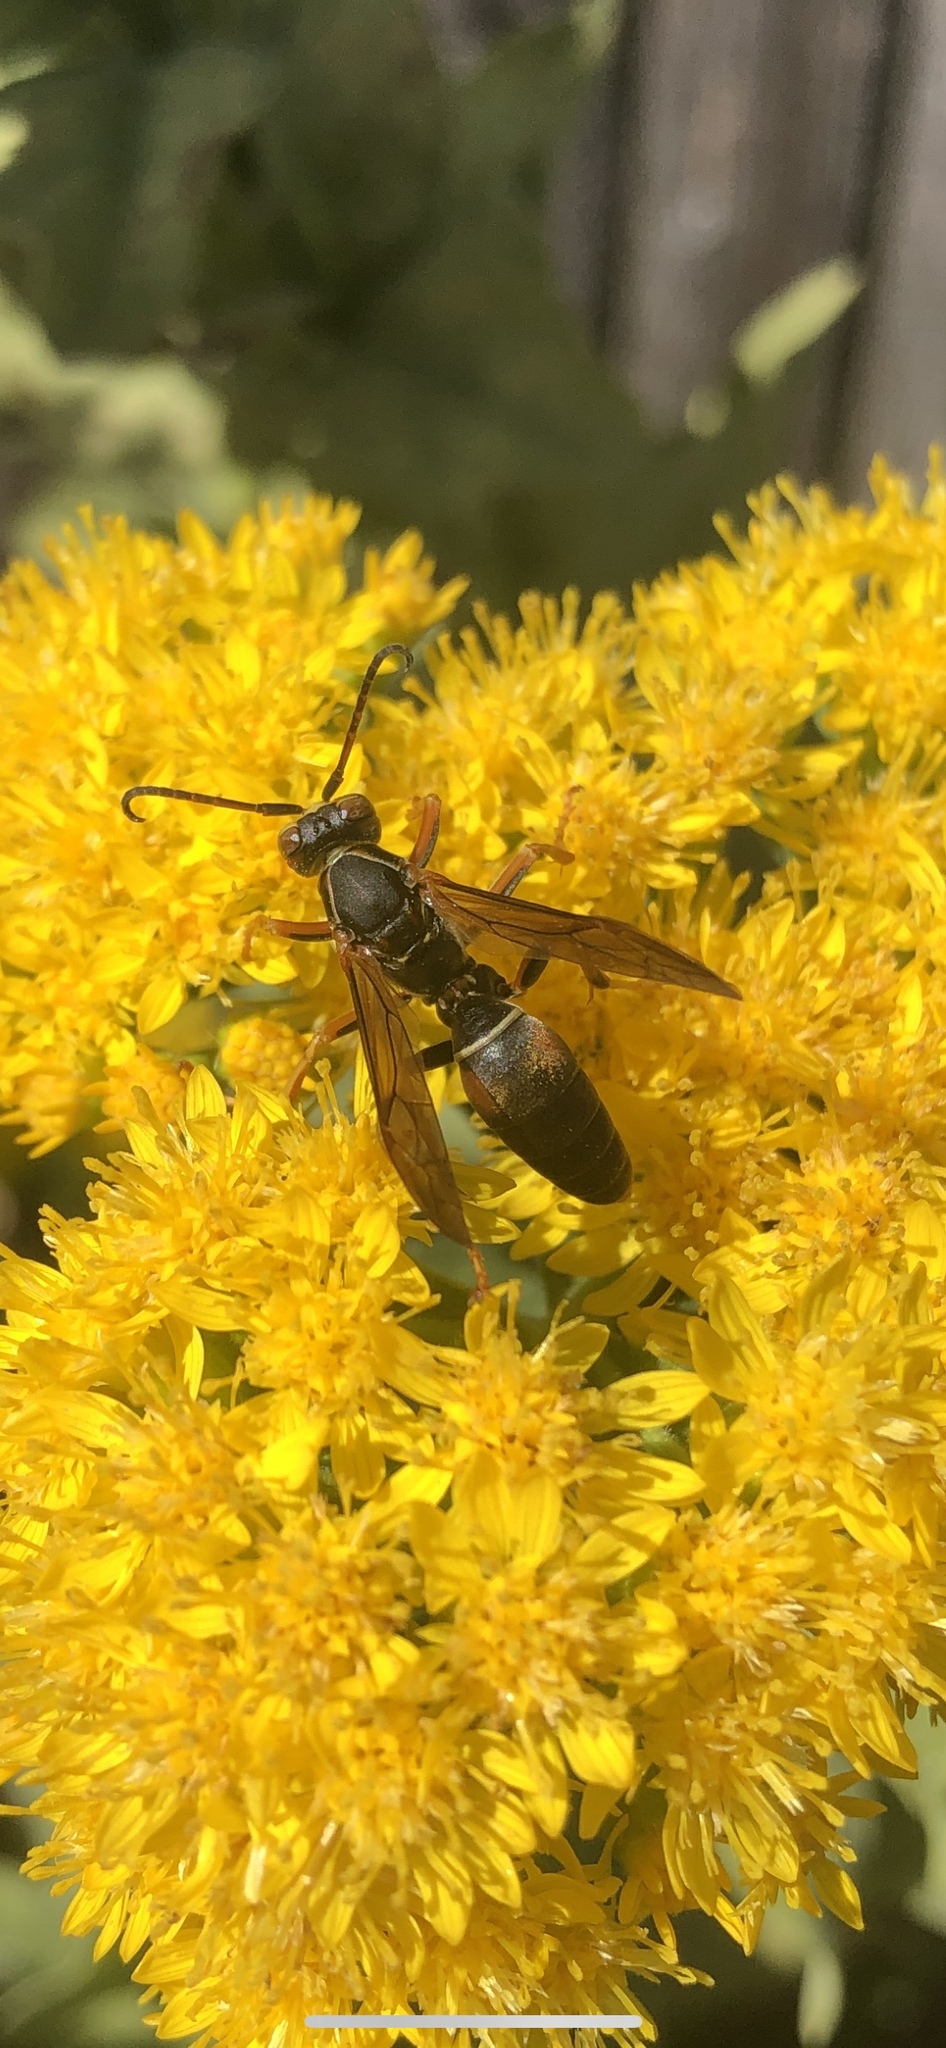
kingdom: Animalia
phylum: Arthropoda
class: Insecta
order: Hymenoptera
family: Eumenidae
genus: Polistes
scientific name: Polistes fuscatus
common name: Dark paper wasp
